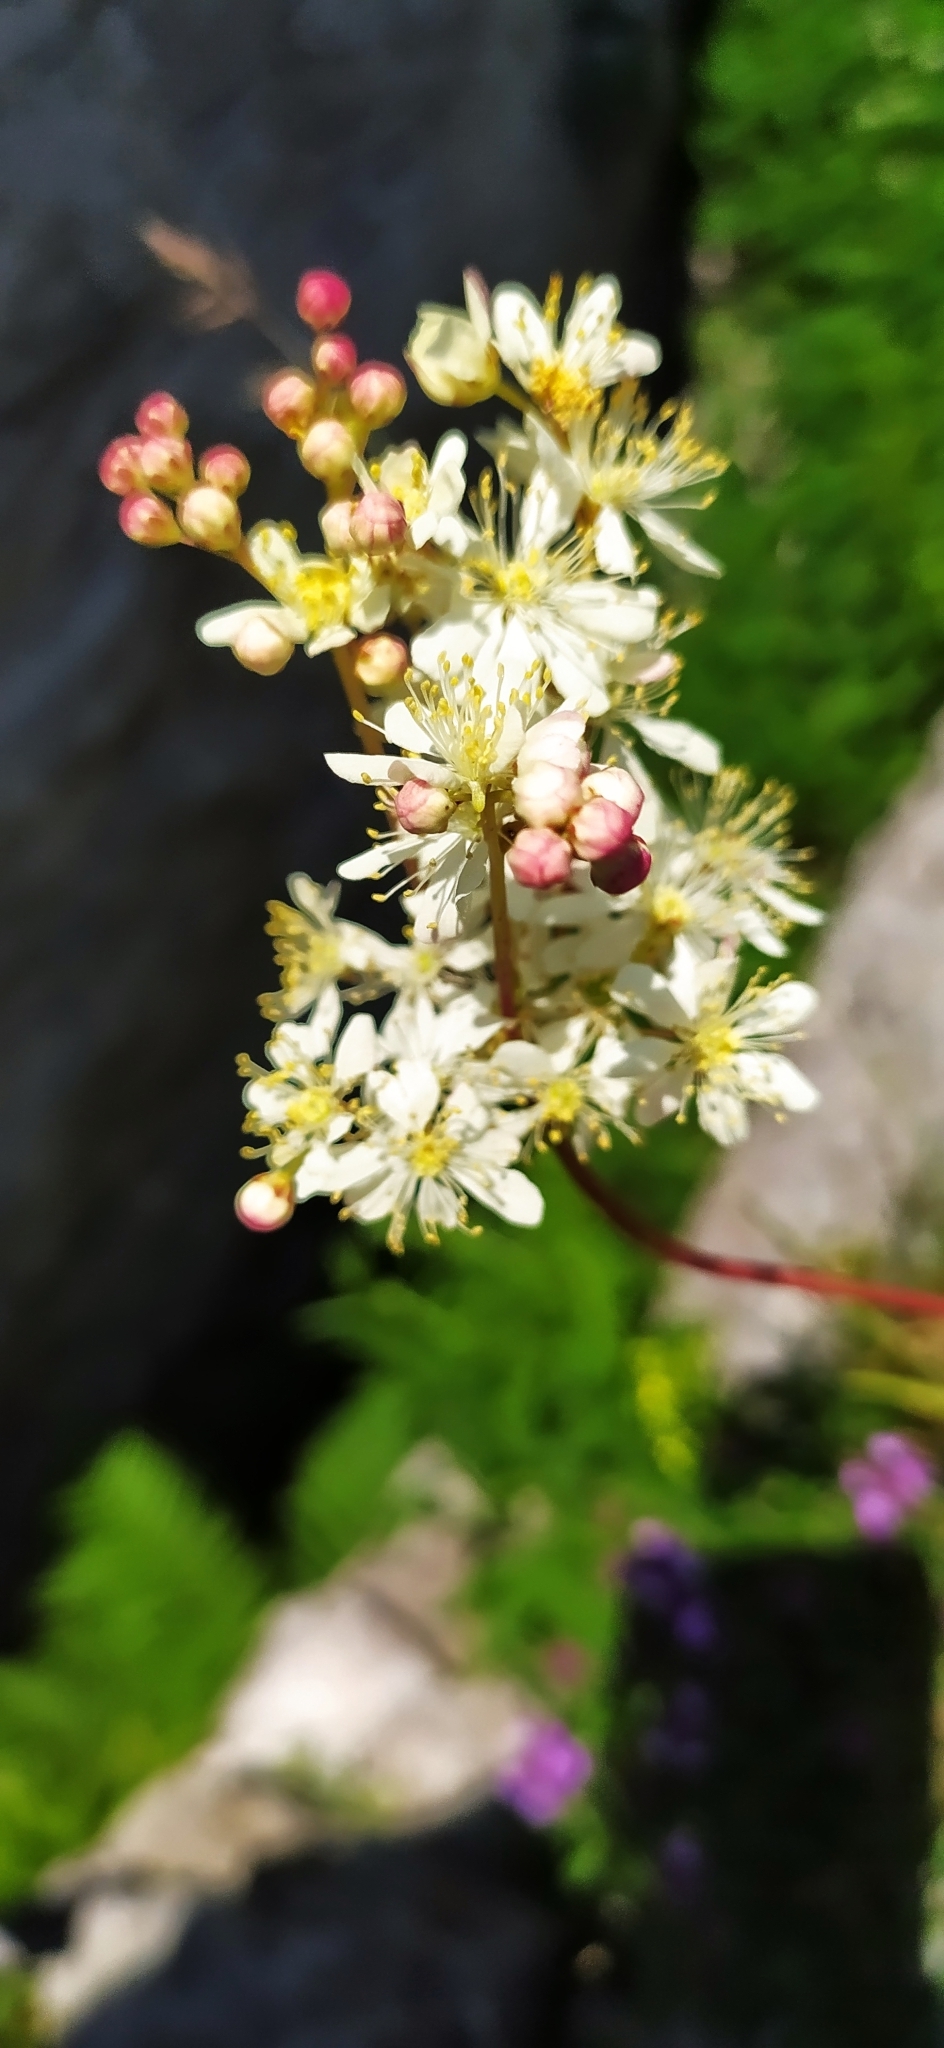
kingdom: Plantae
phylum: Tracheophyta
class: Magnoliopsida
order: Rosales
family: Rosaceae
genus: Filipendula
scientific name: Filipendula vulgaris
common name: Dropwort
